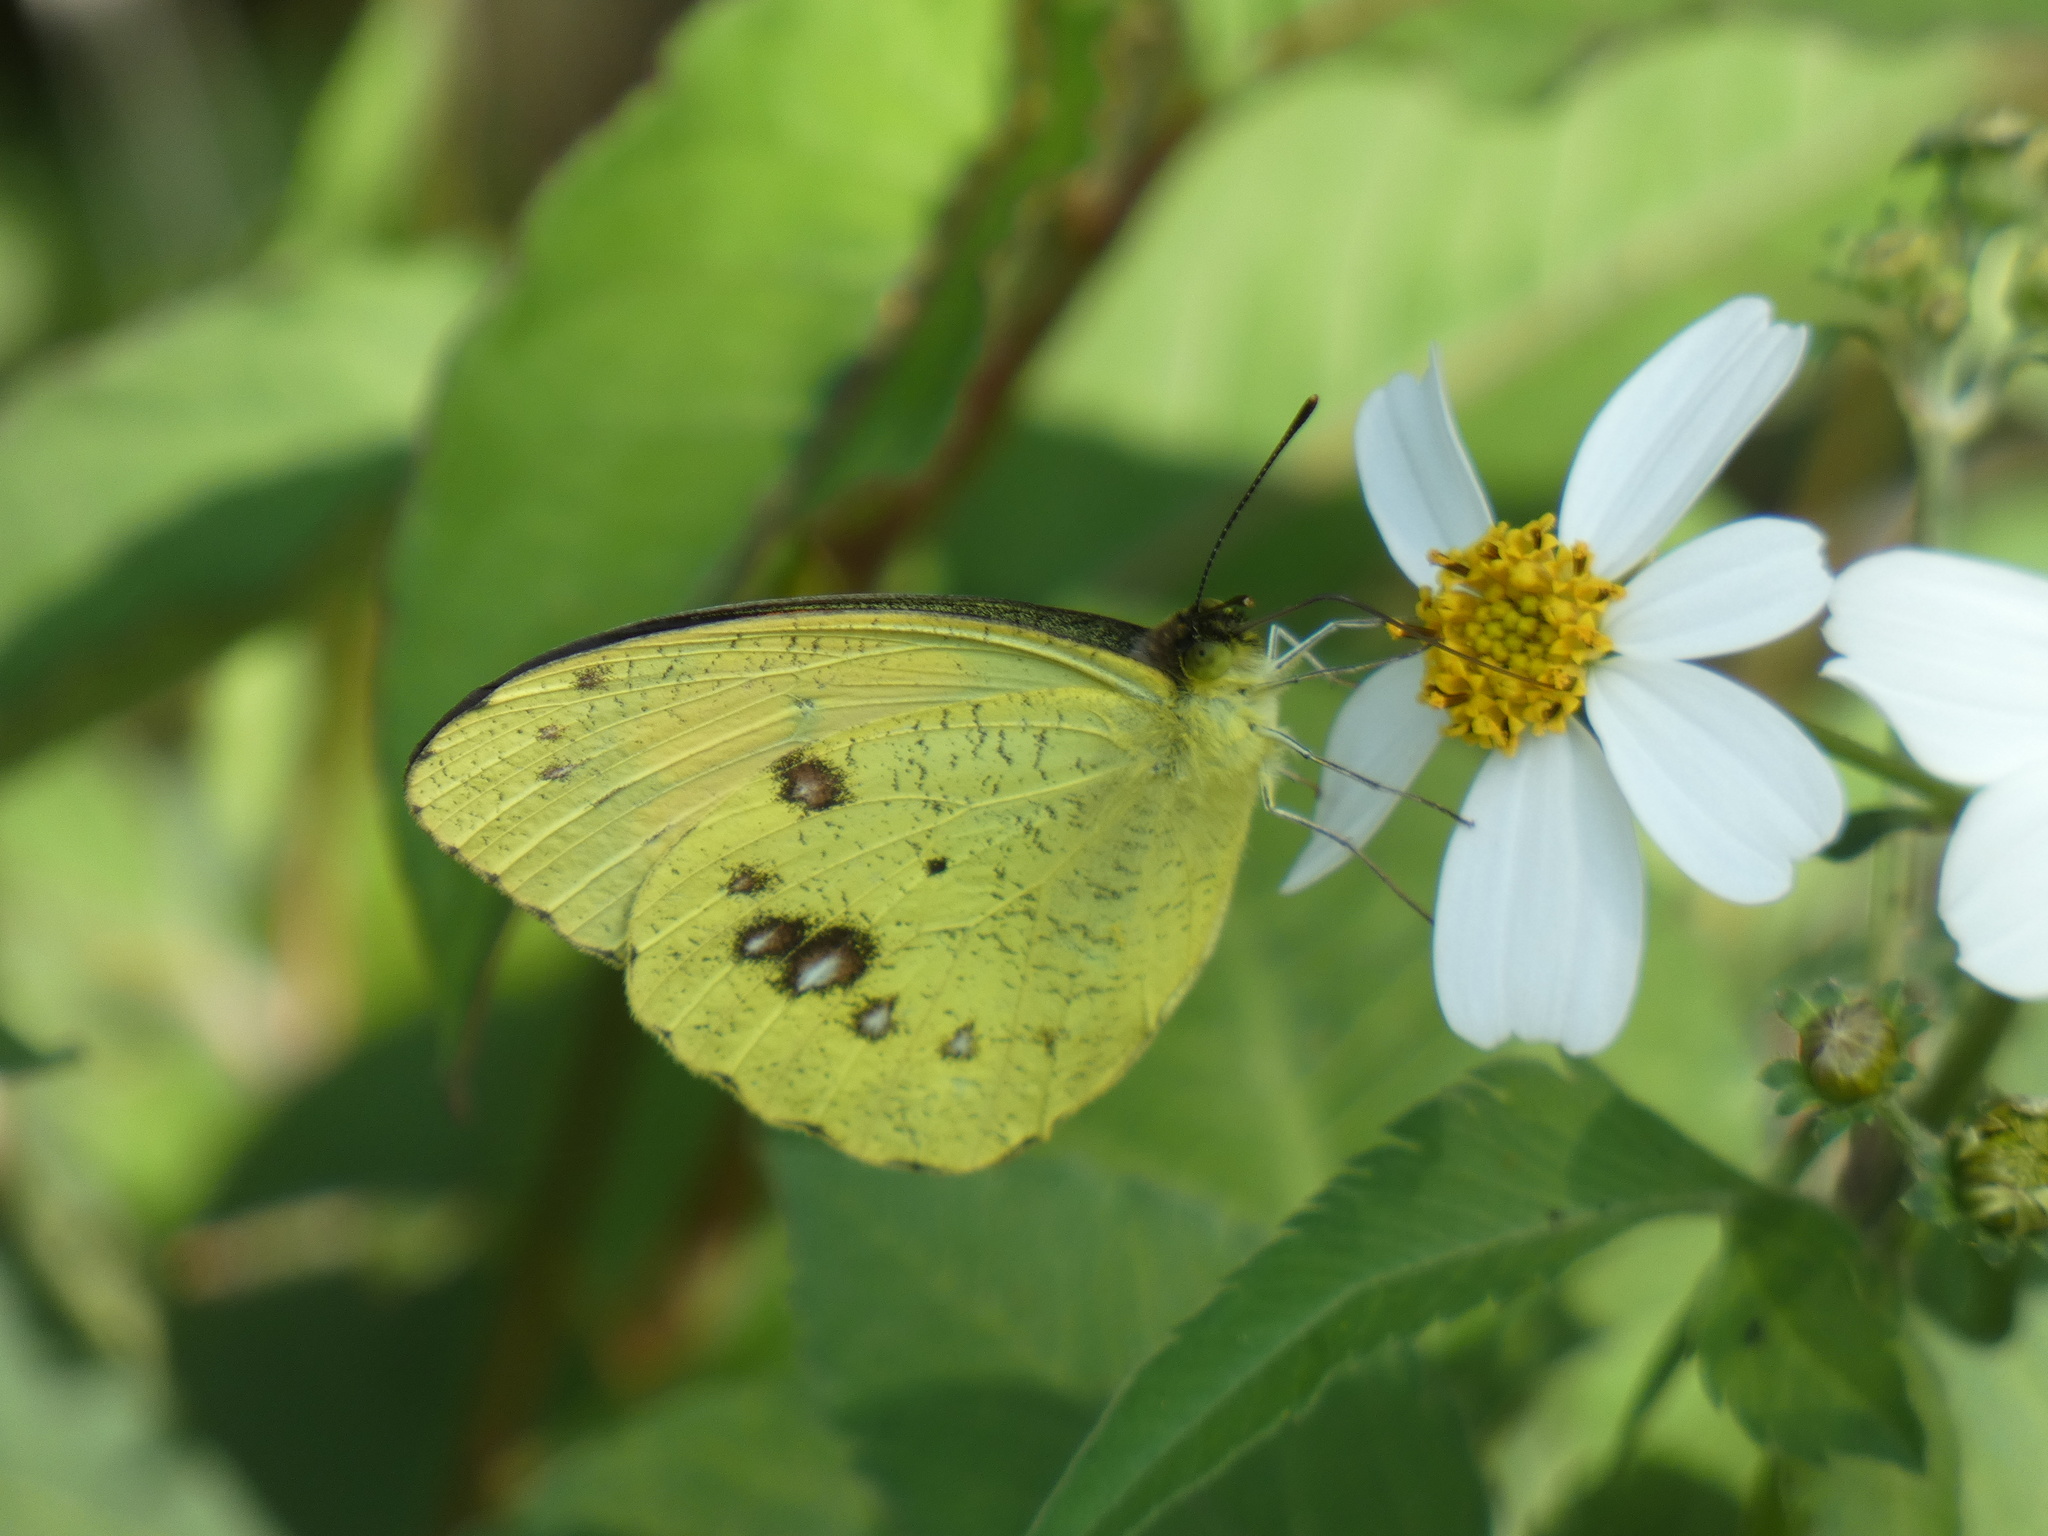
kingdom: Animalia
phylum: Arthropoda
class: Insecta
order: Lepidoptera
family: Pieridae
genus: Ixias
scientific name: Ixias pyrene
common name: Yellow orange tip
